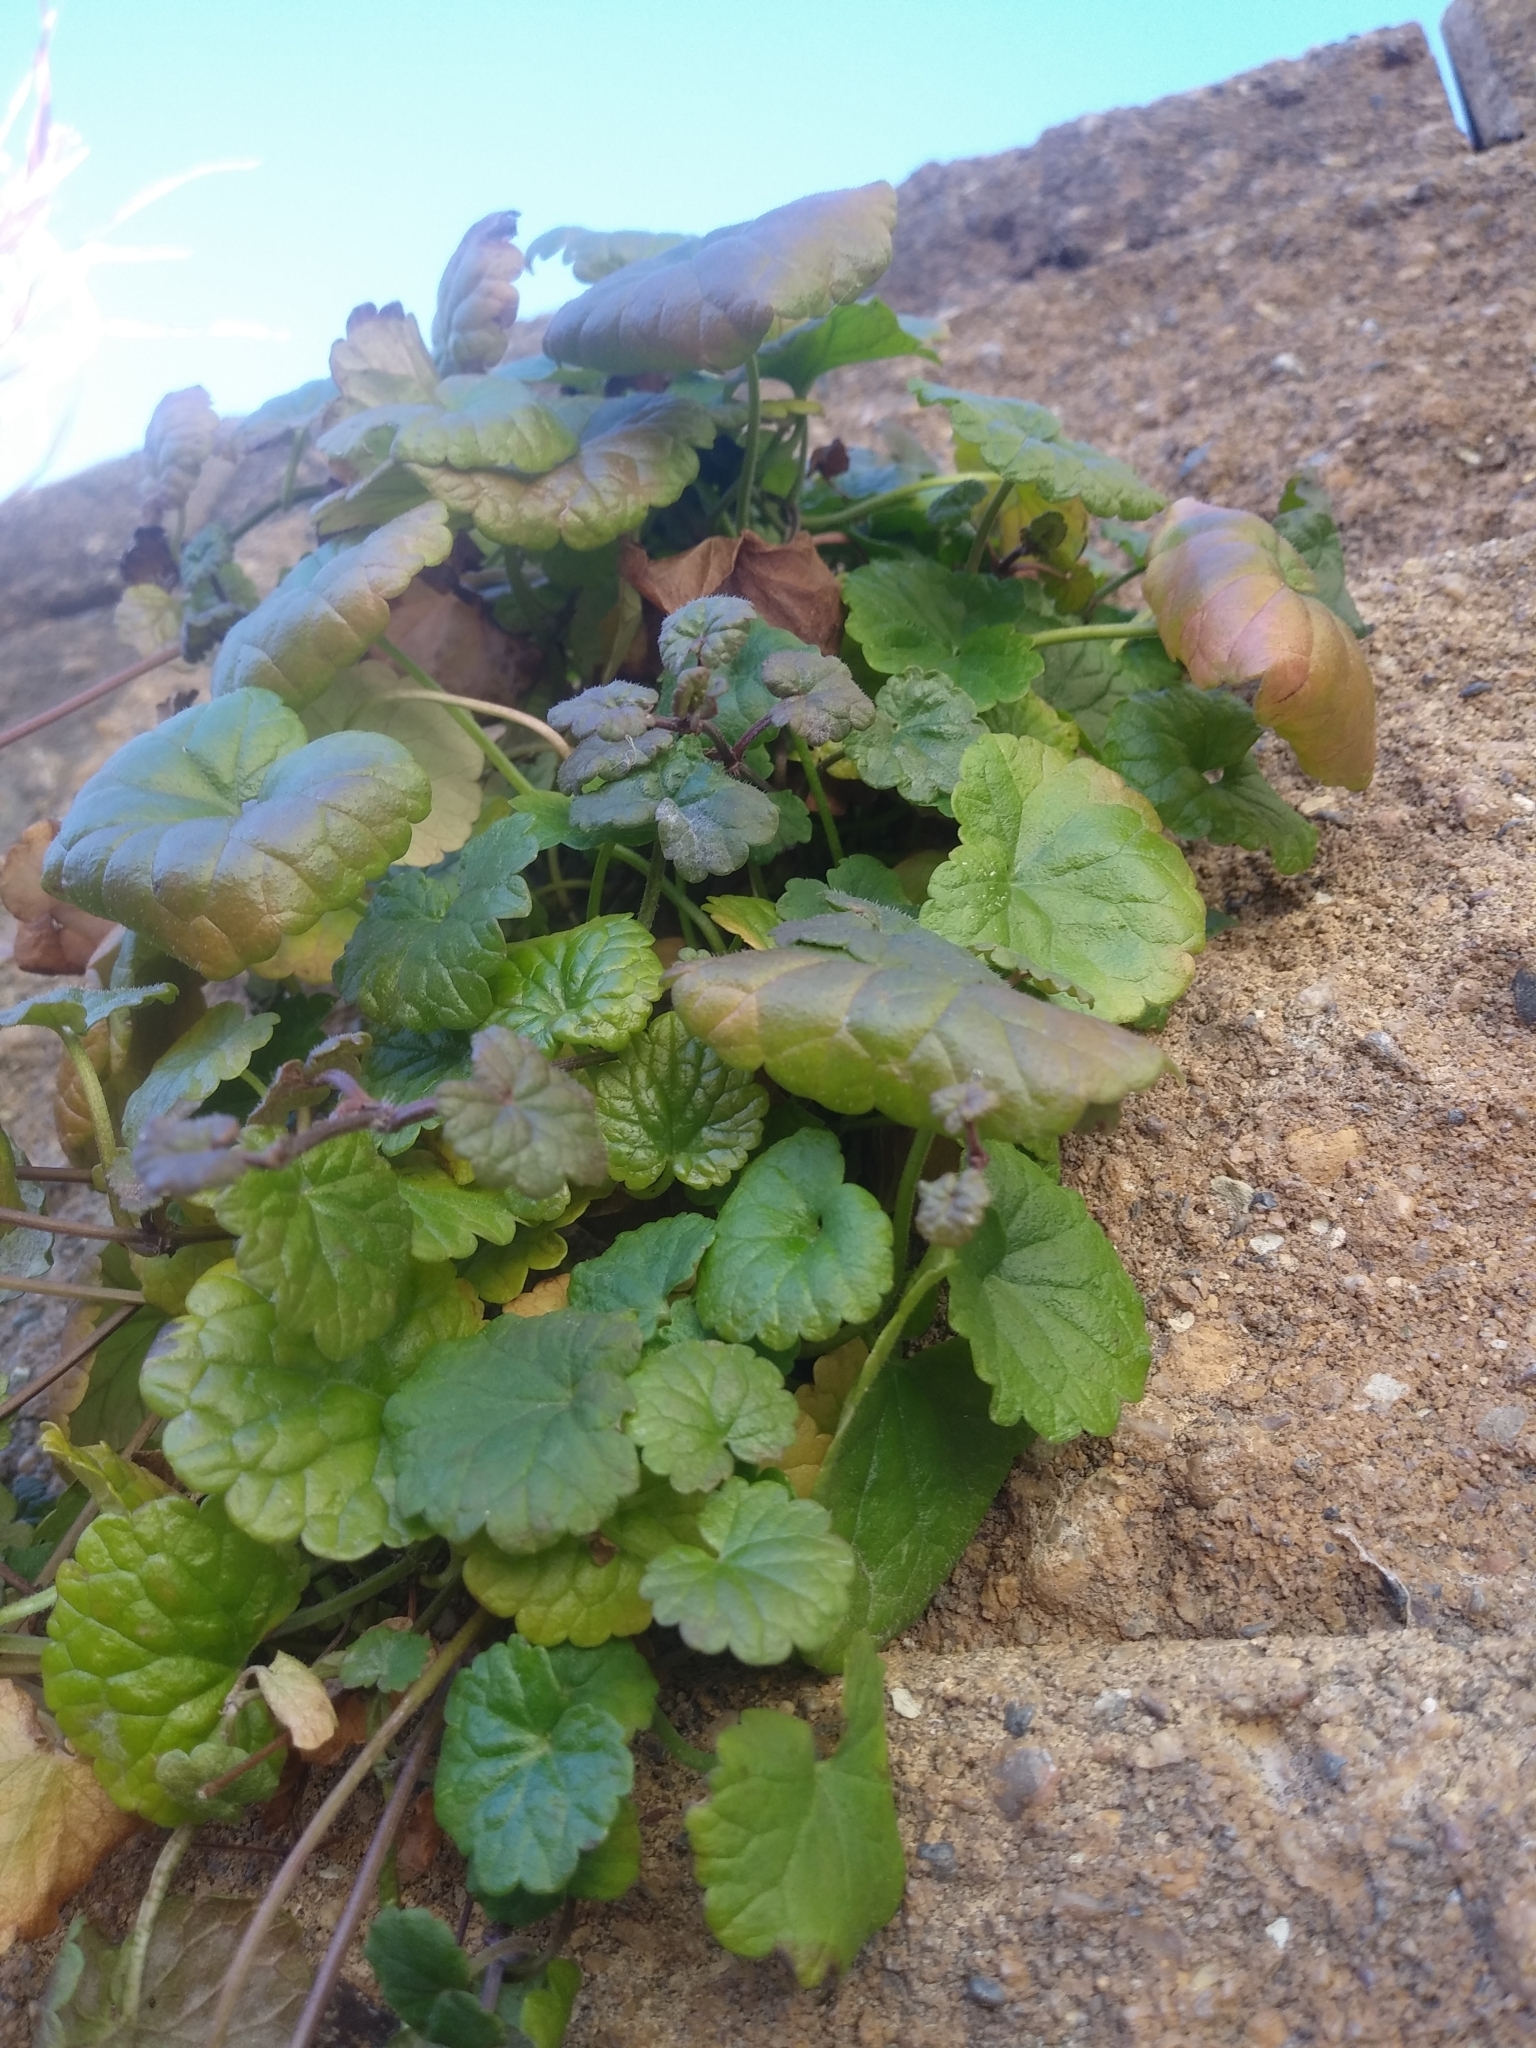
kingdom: Plantae
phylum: Tracheophyta
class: Magnoliopsida
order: Lamiales
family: Lamiaceae
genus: Glechoma
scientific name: Glechoma hederacea
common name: Ground ivy
